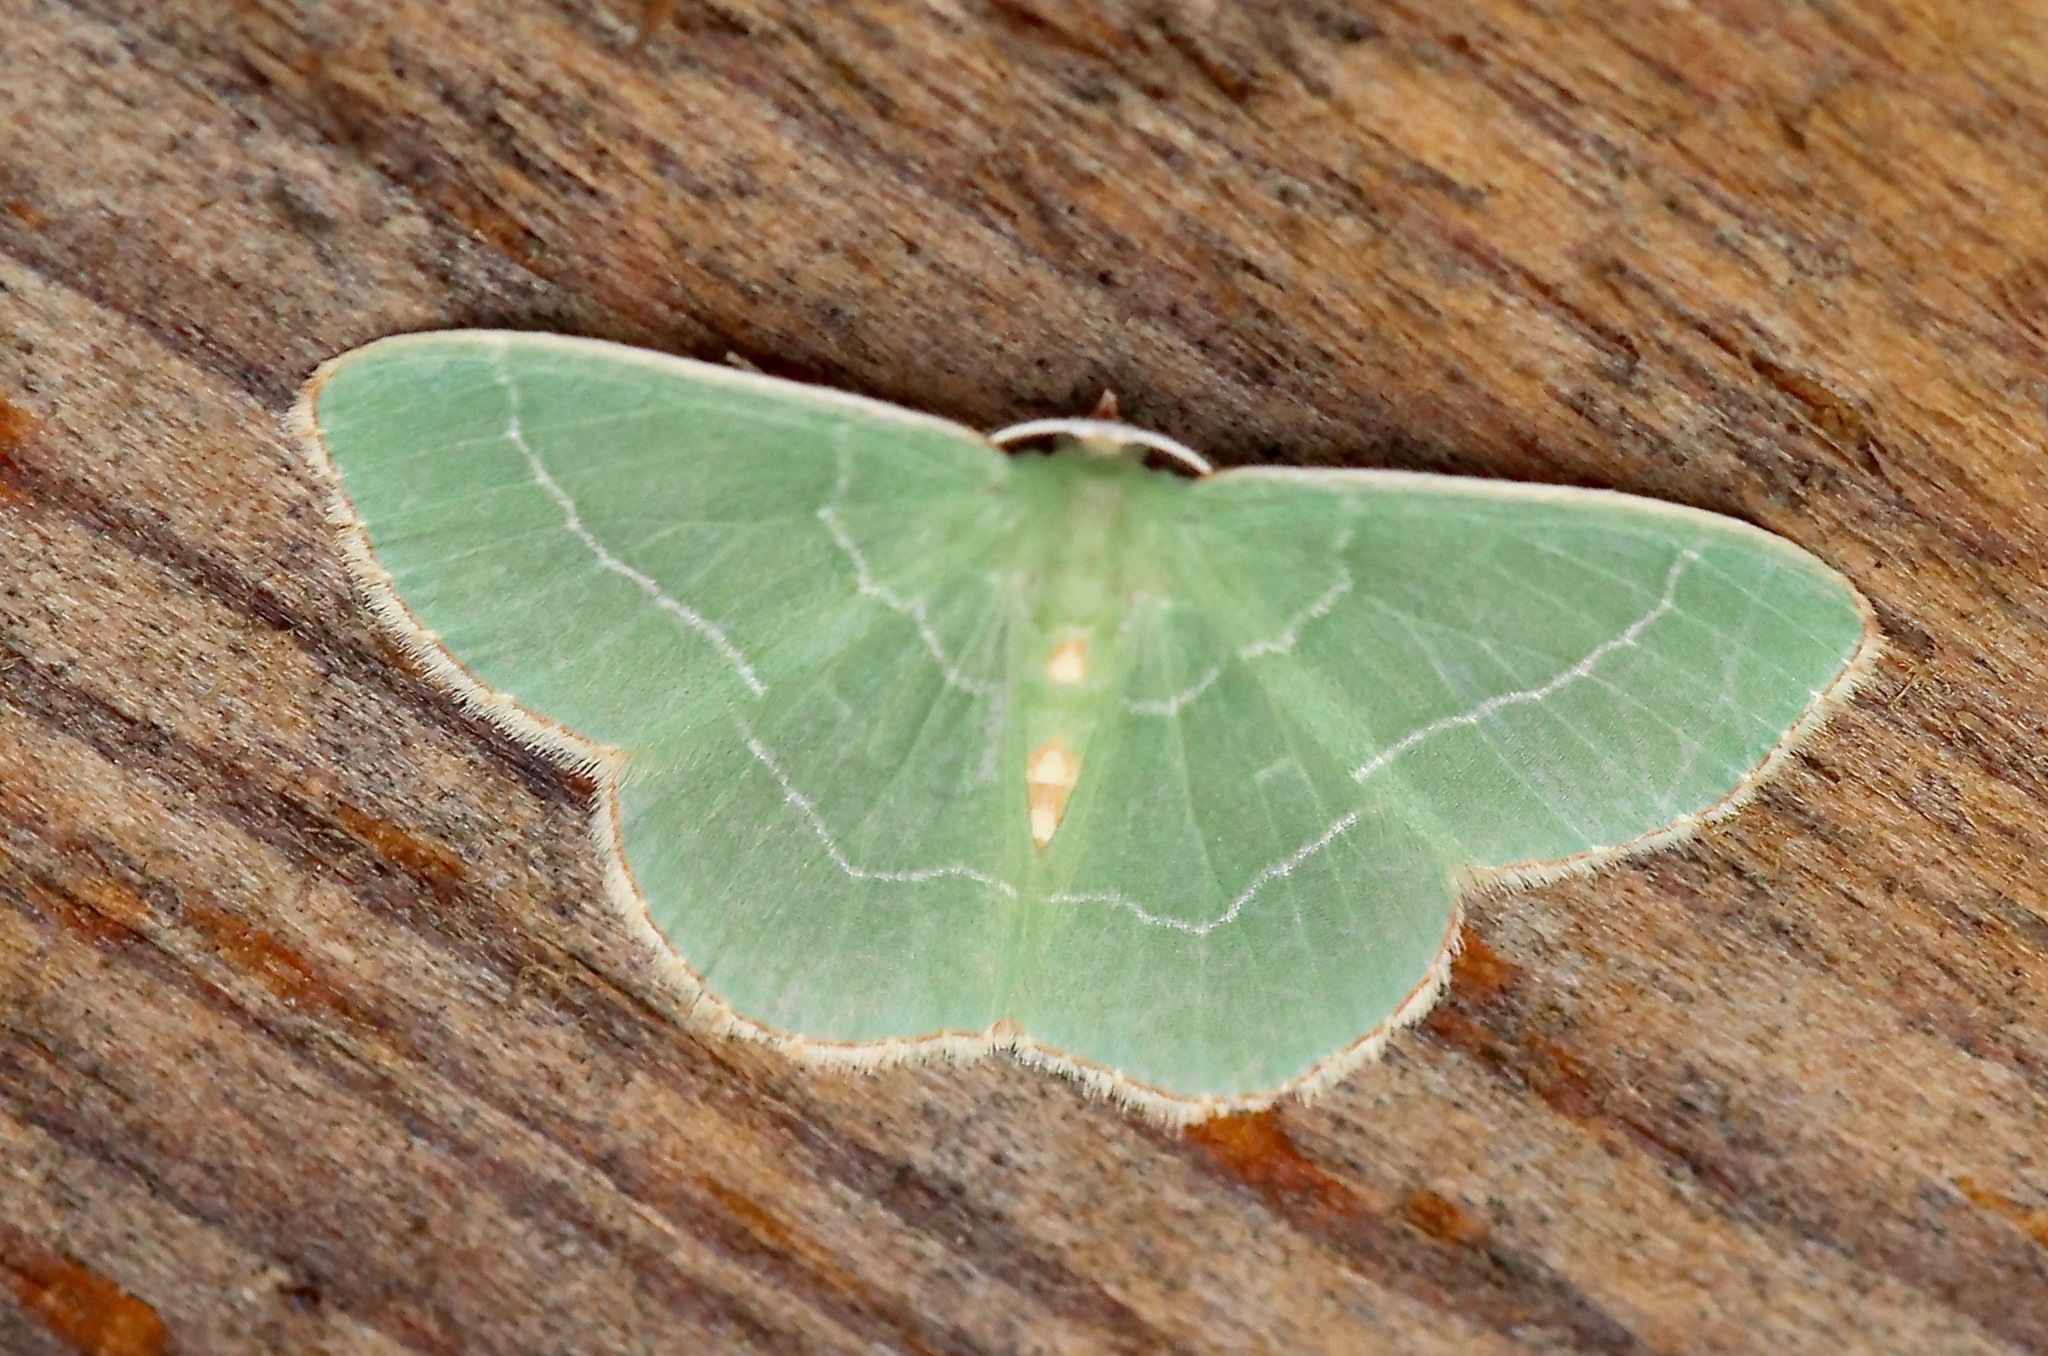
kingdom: Animalia
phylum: Arthropoda
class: Insecta
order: Lepidoptera
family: Geometridae
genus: Nemoria
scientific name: Nemoria bistriaria
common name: Red-fringed emerald
